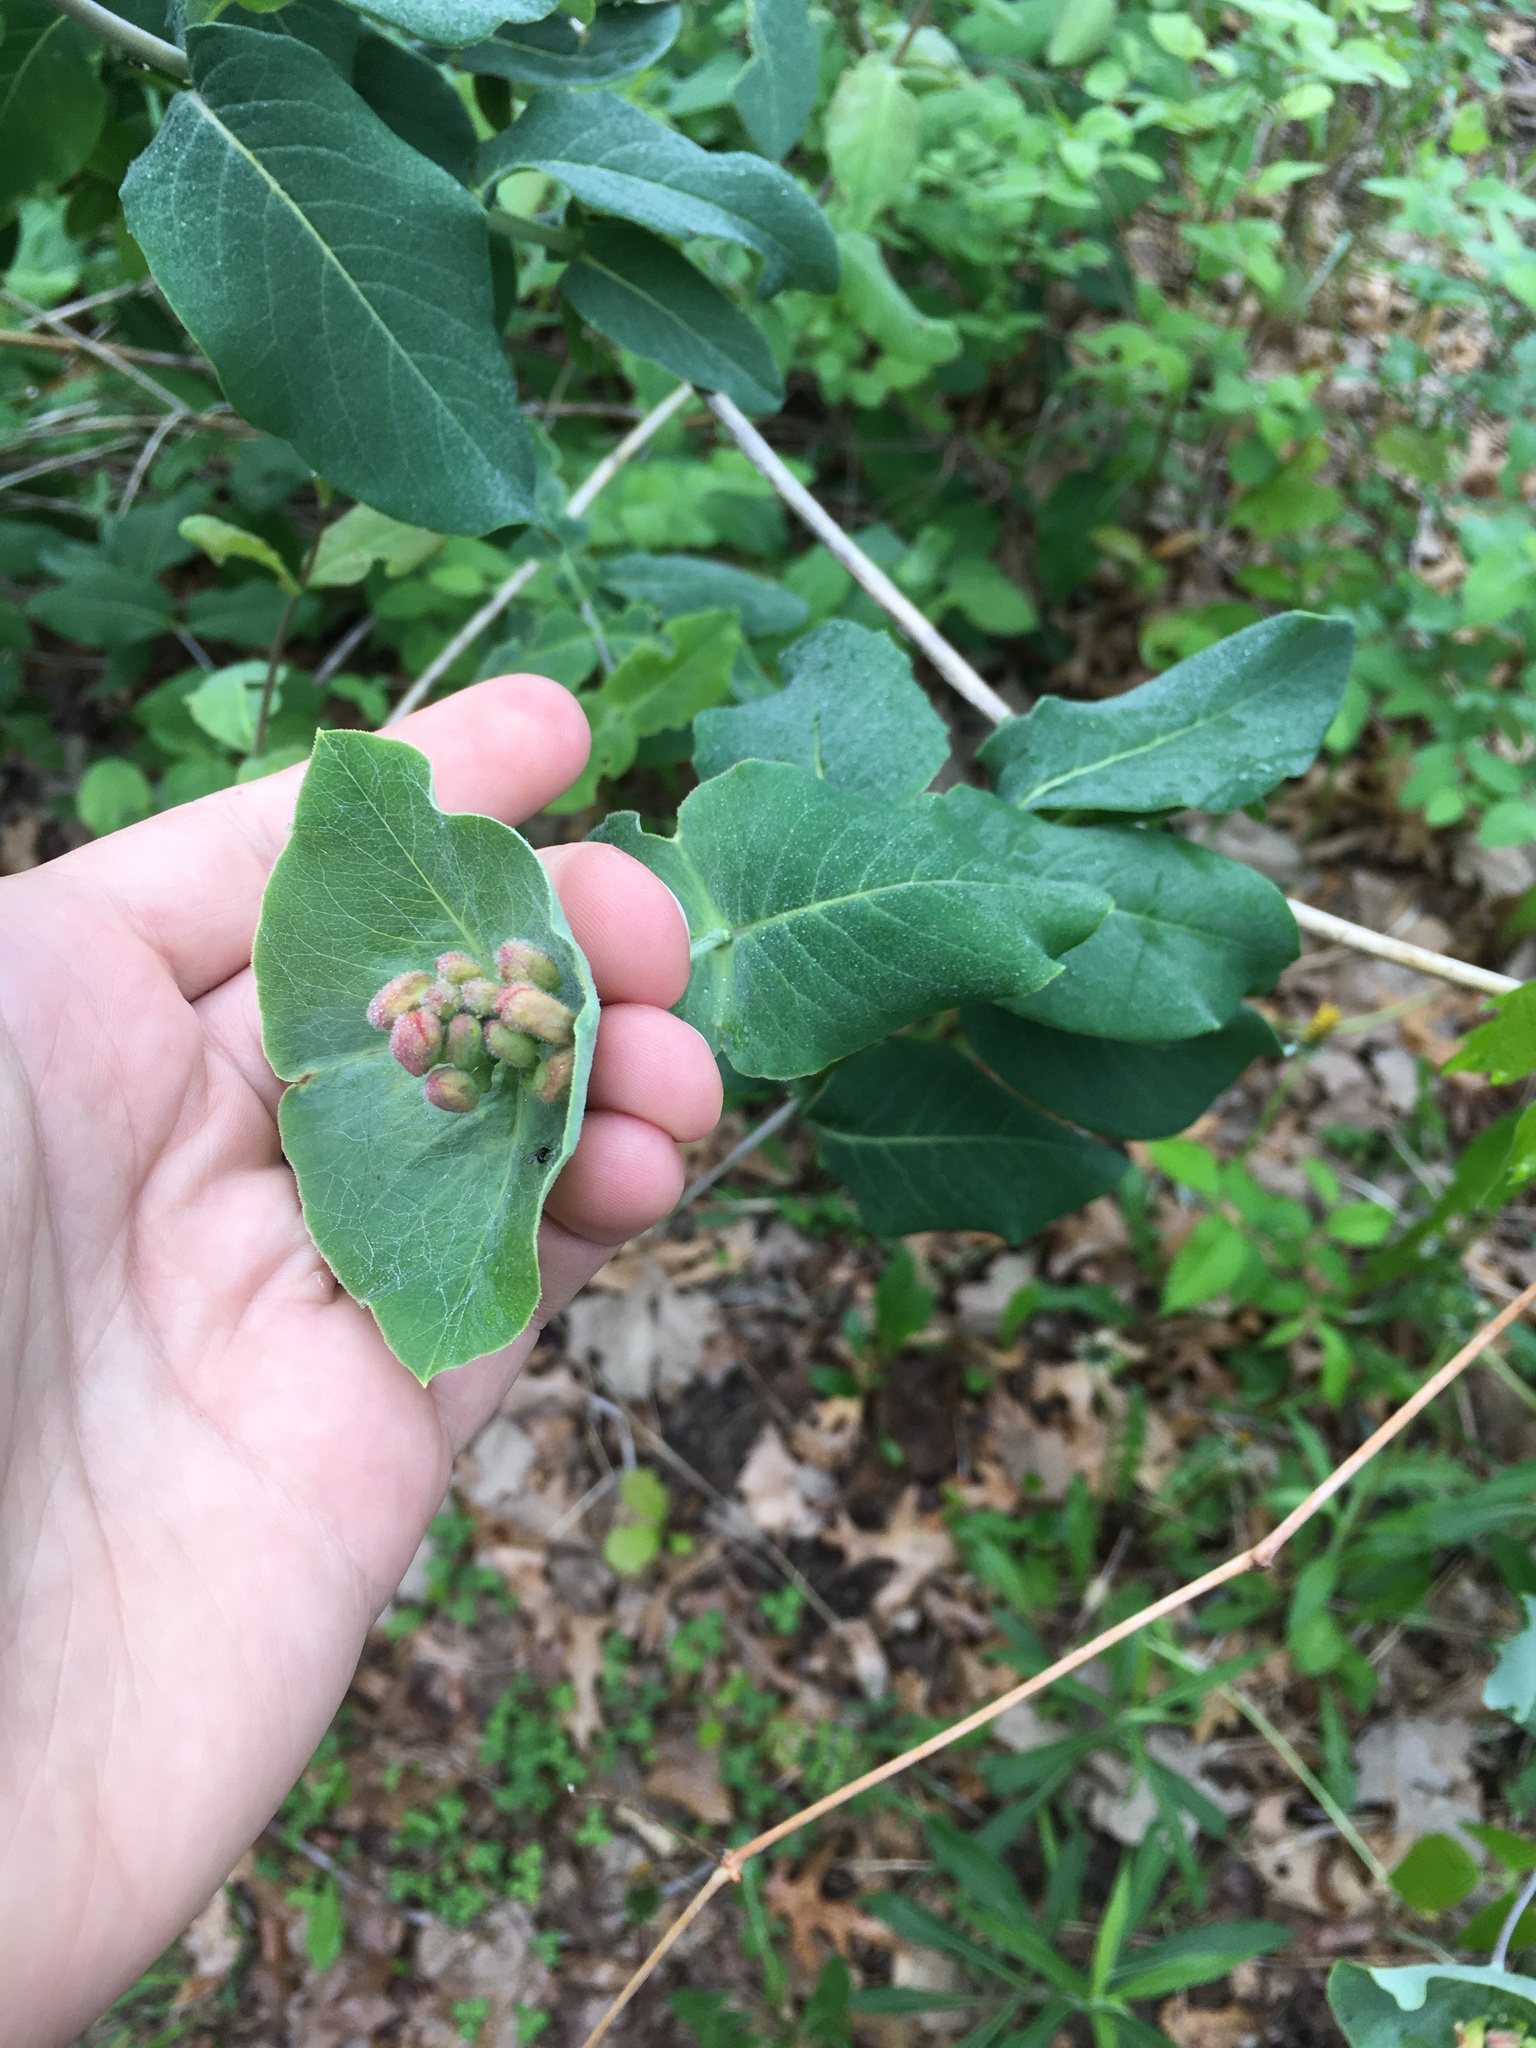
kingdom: Plantae
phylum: Tracheophyta
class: Magnoliopsida
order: Dipsacales
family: Caprifoliaceae
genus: Lonicera
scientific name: Lonicera dioica
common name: Limber honeysuckle
